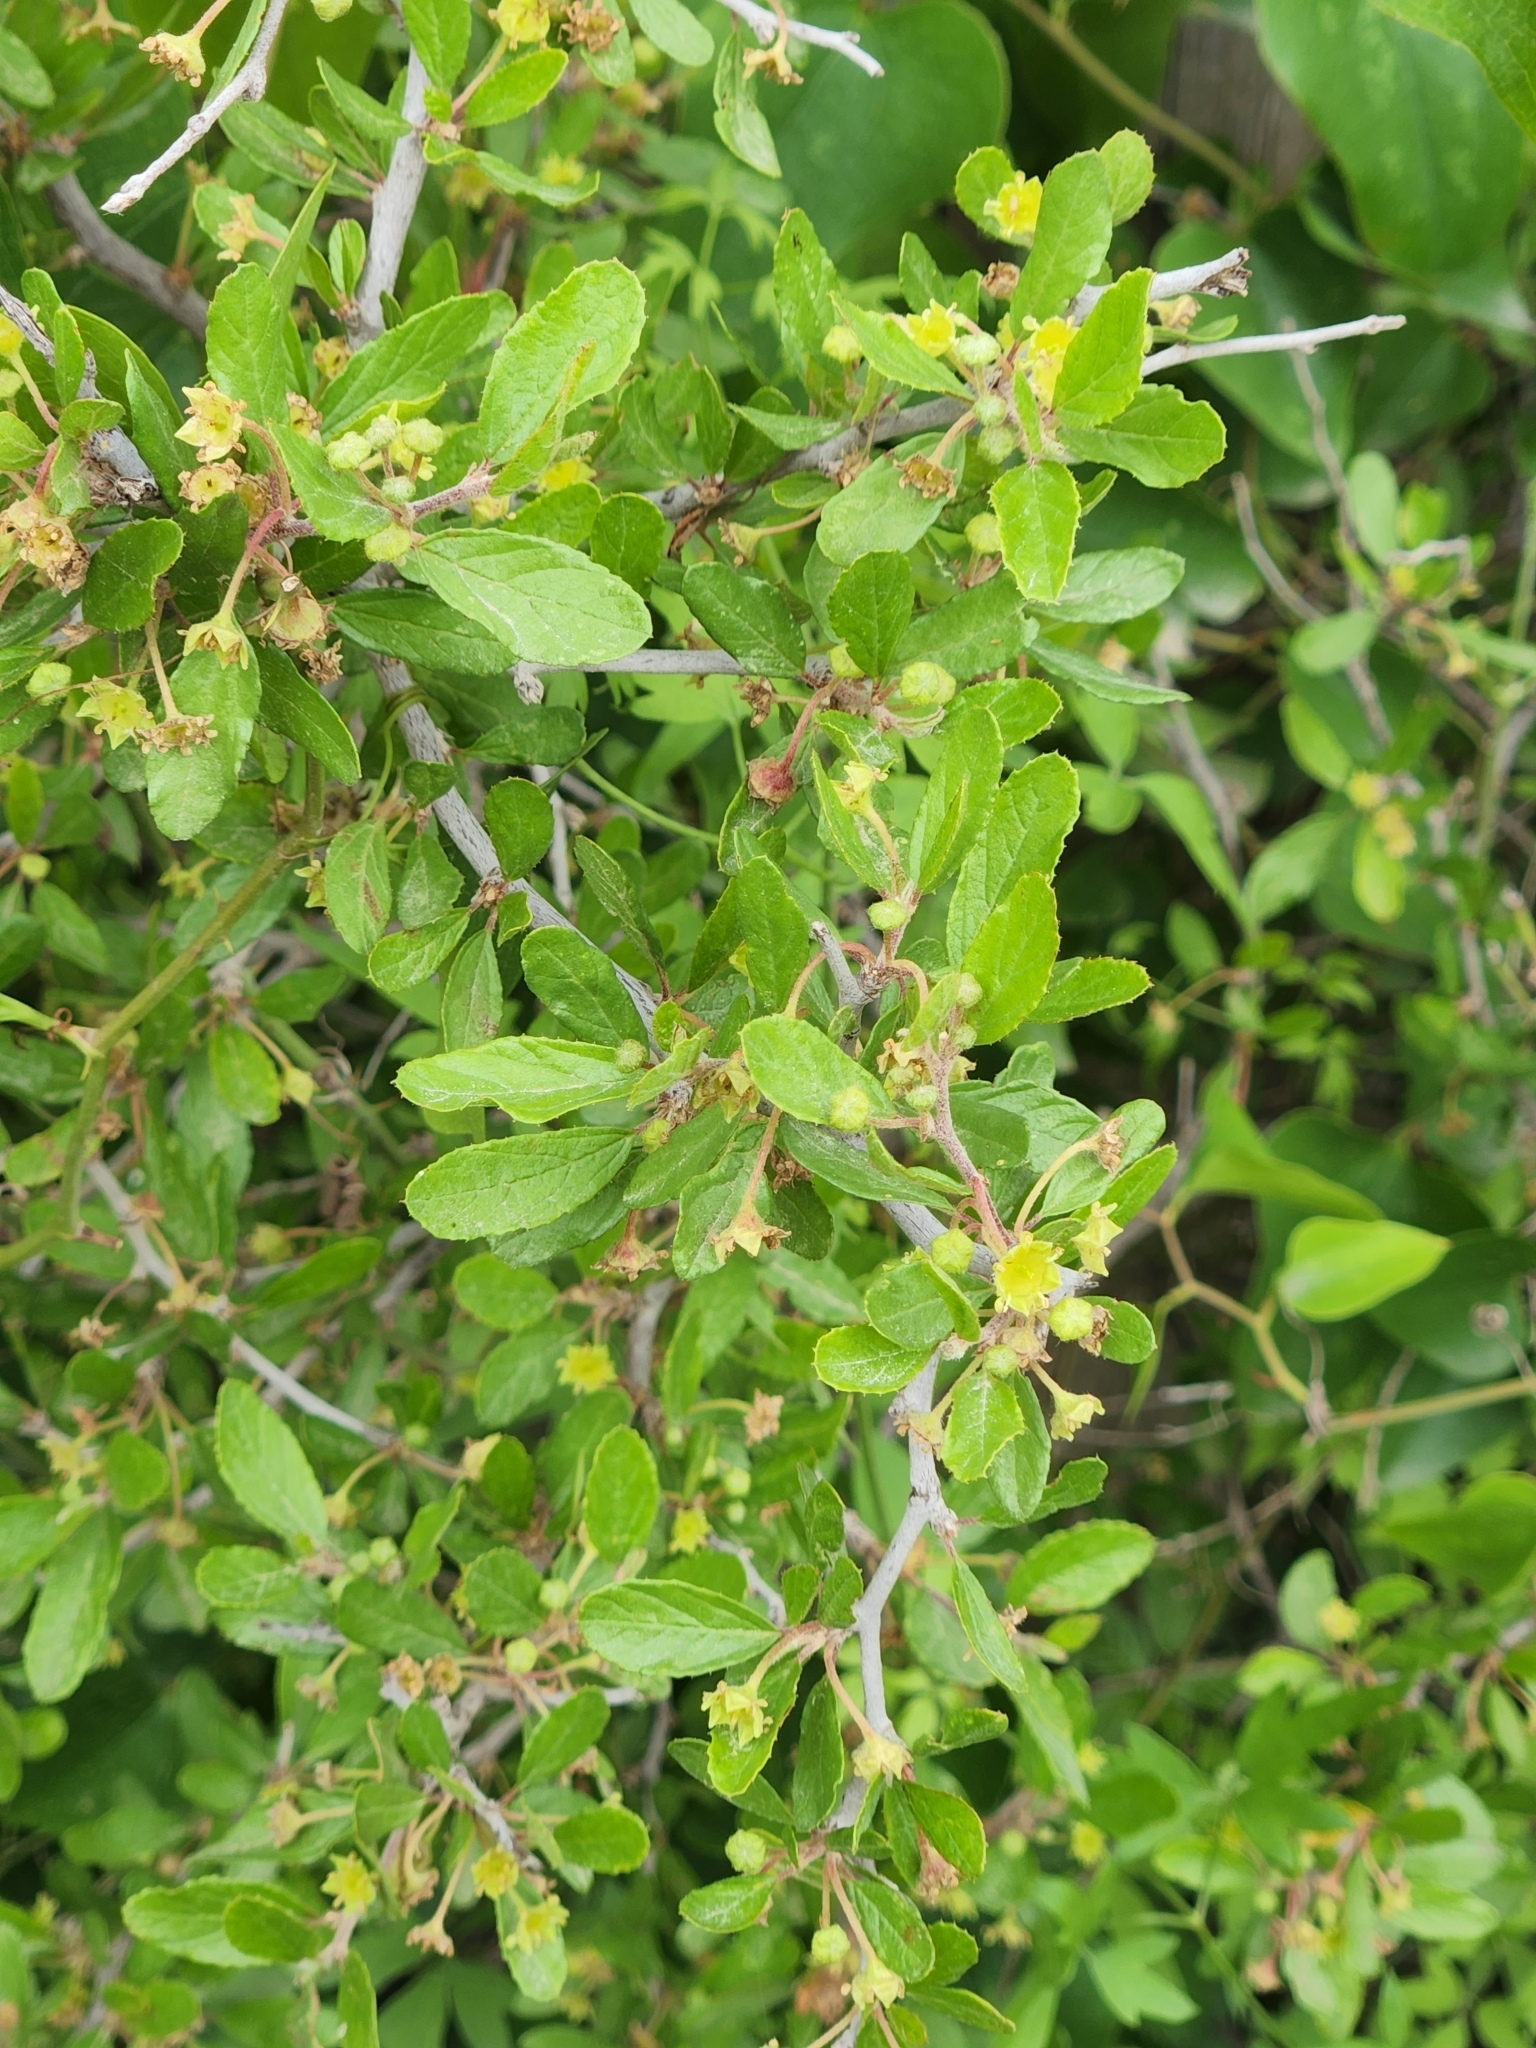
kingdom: Plantae
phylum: Tracheophyta
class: Magnoliopsida
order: Rosales
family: Rhamnaceae
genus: Colubrina
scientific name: Colubrina texensis
